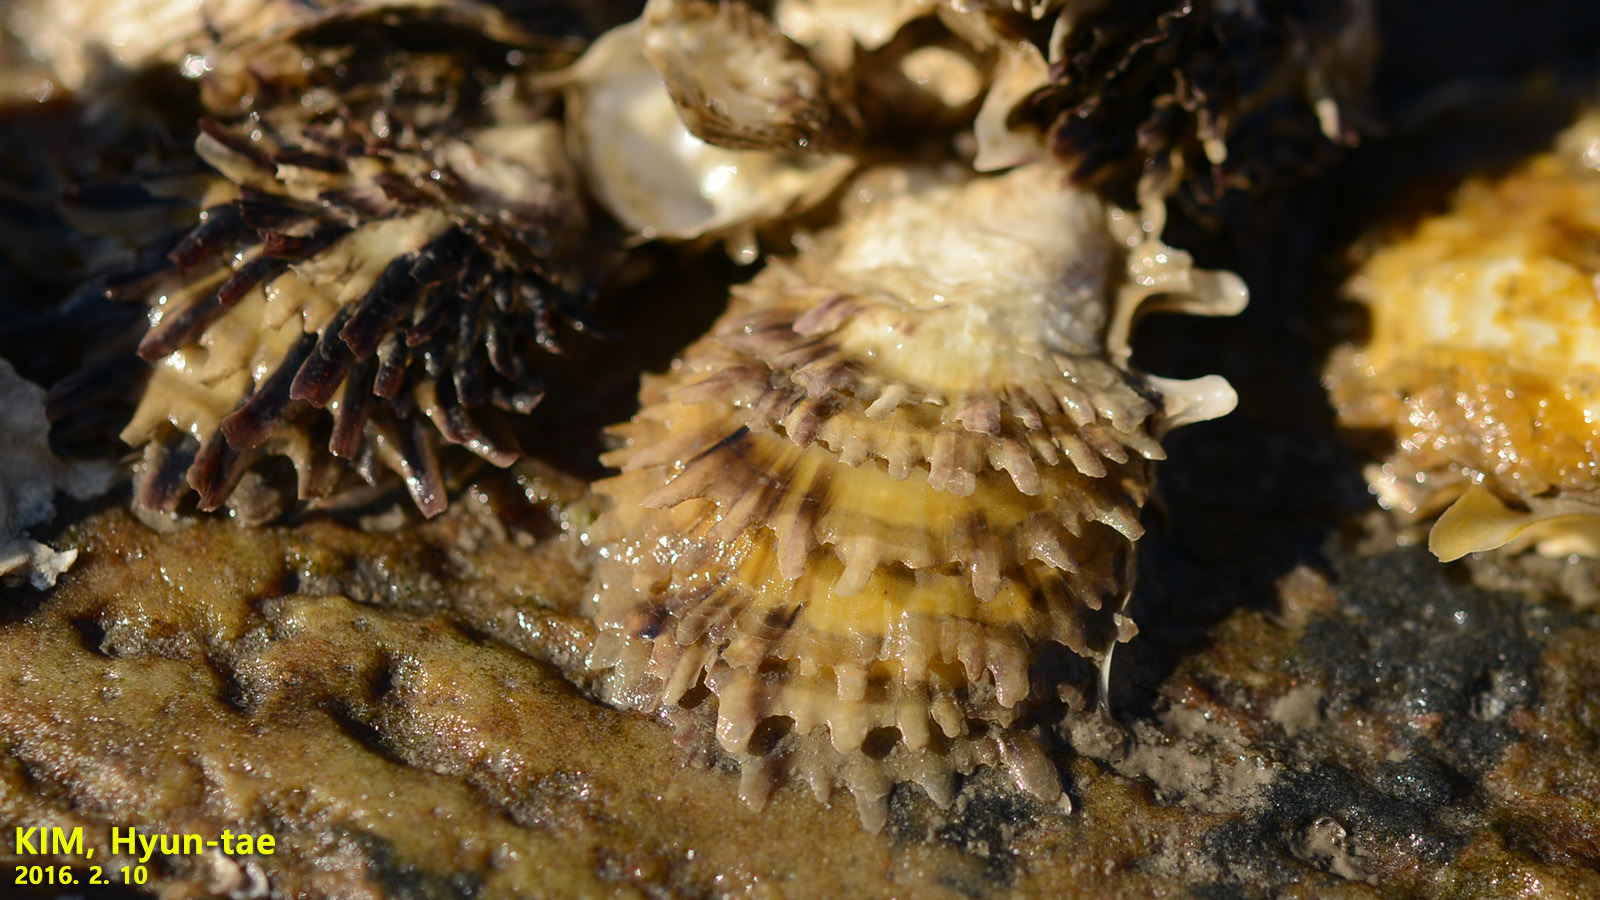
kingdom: Animalia
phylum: Mollusca
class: Bivalvia
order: Ostreida
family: Ostreidae
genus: Saccostrea
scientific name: Saccostrea kegaki
